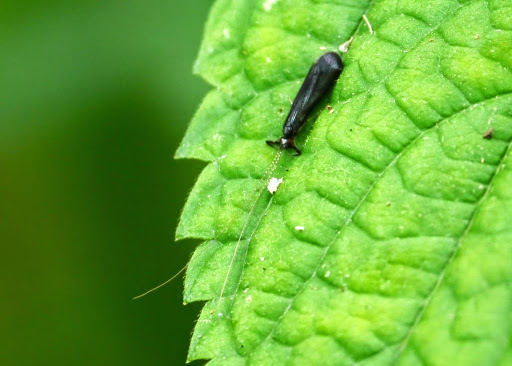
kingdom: Animalia
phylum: Arthropoda
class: Insecta
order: Trichoptera
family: Leptoceridae
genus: Mystacides
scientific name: Mystacides sepulchralis
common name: Black dancer caddisfly
